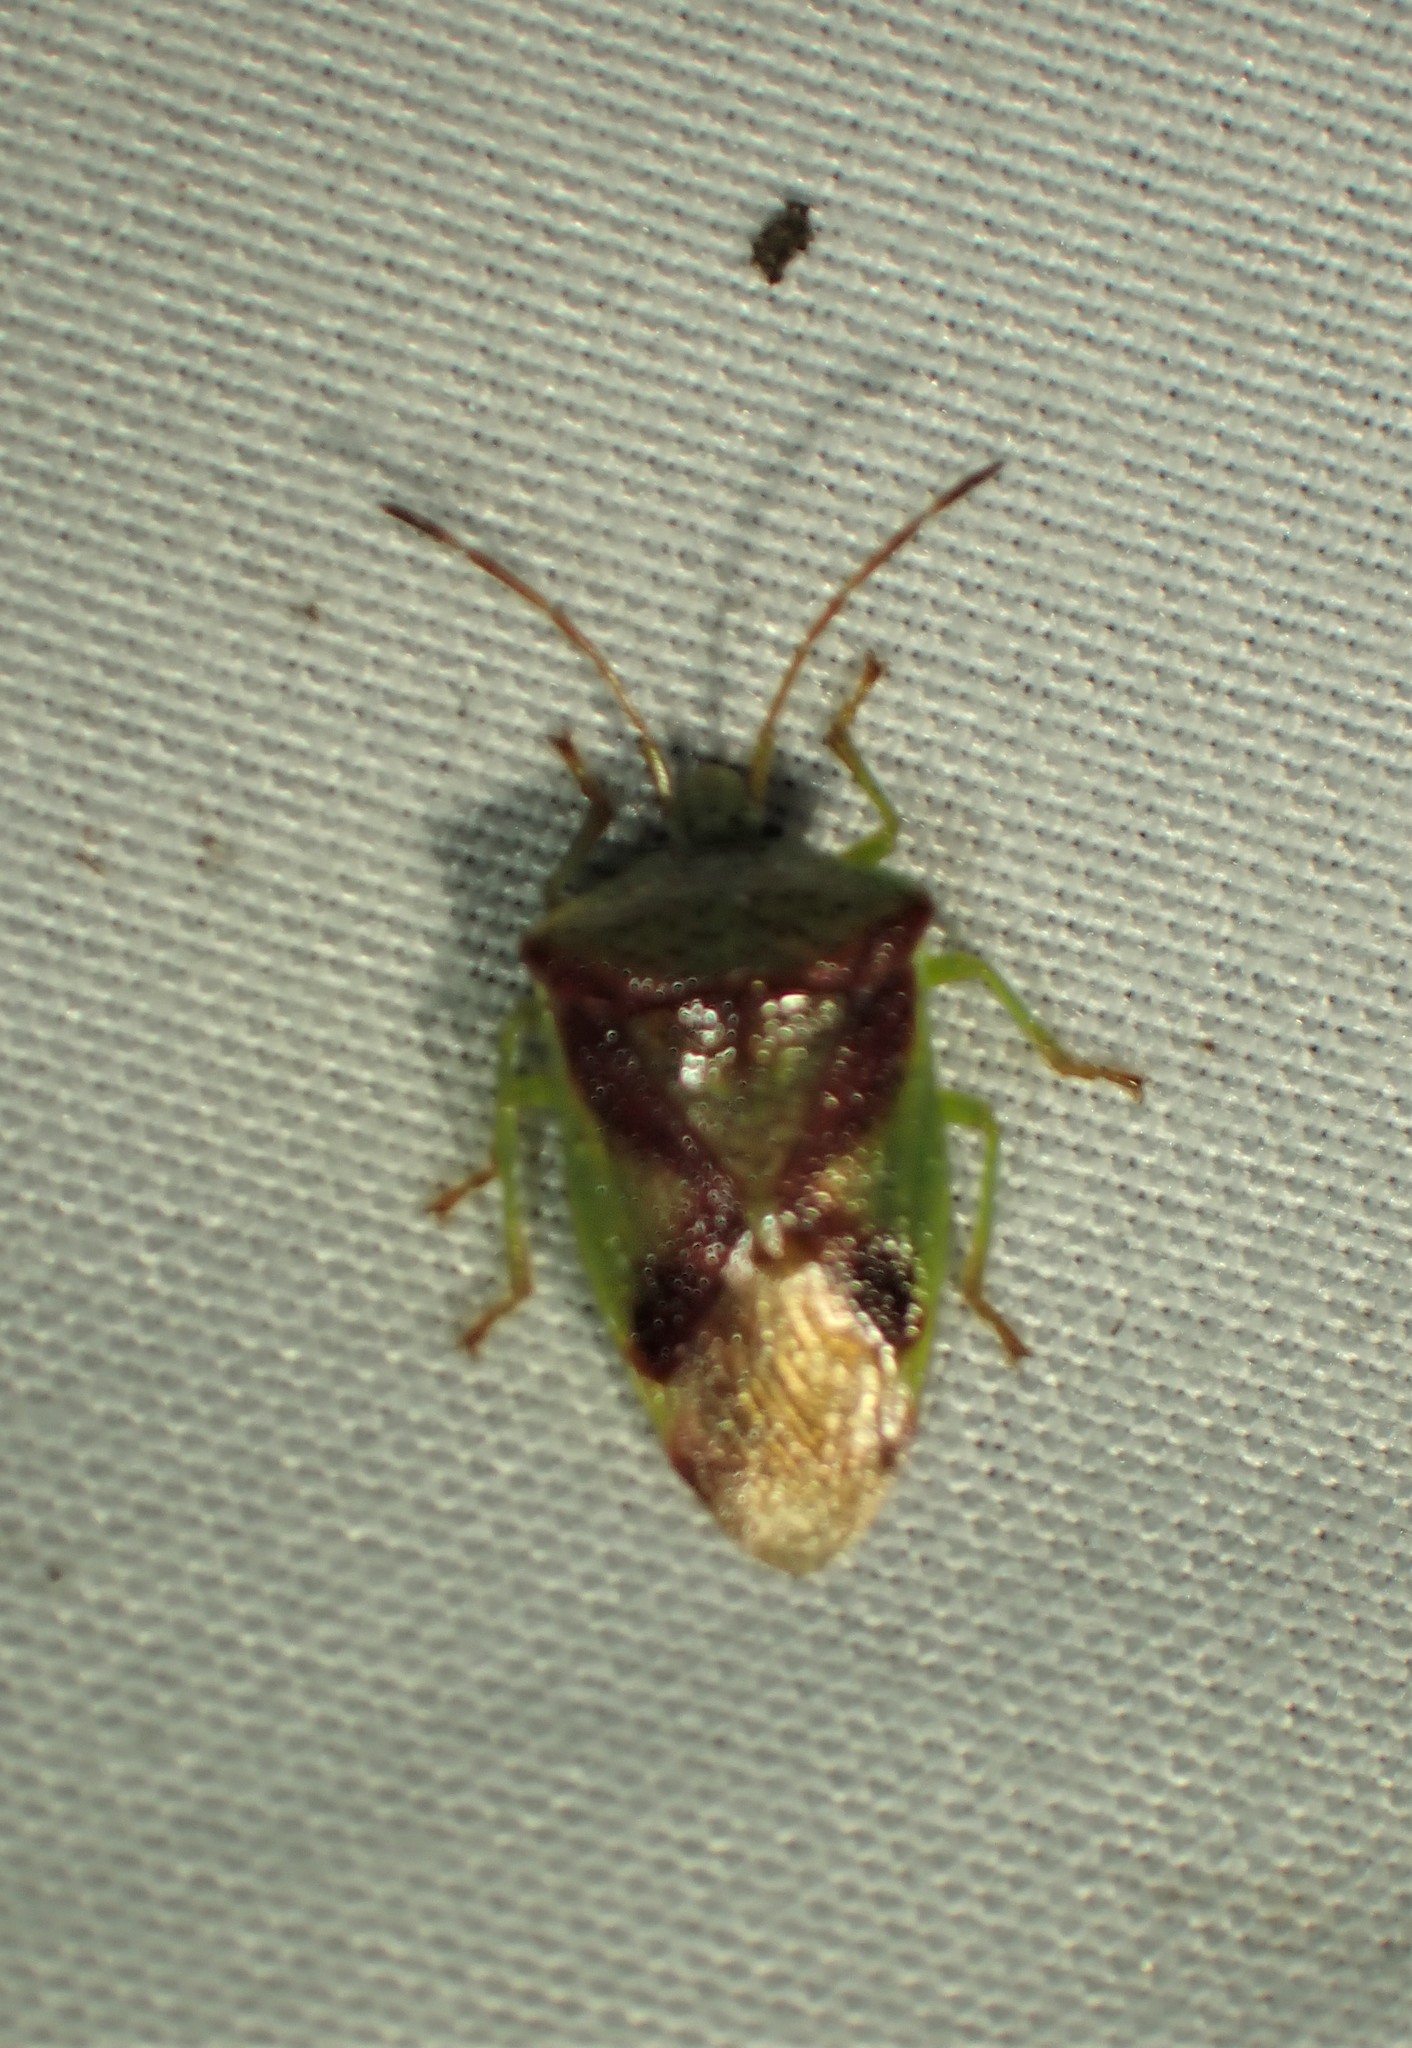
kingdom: Animalia
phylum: Arthropoda
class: Insecta
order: Hemiptera
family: Acanthosomatidae
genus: Elasmostethus
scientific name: Elasmostethus cruciatus
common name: Red-cross shield bug
